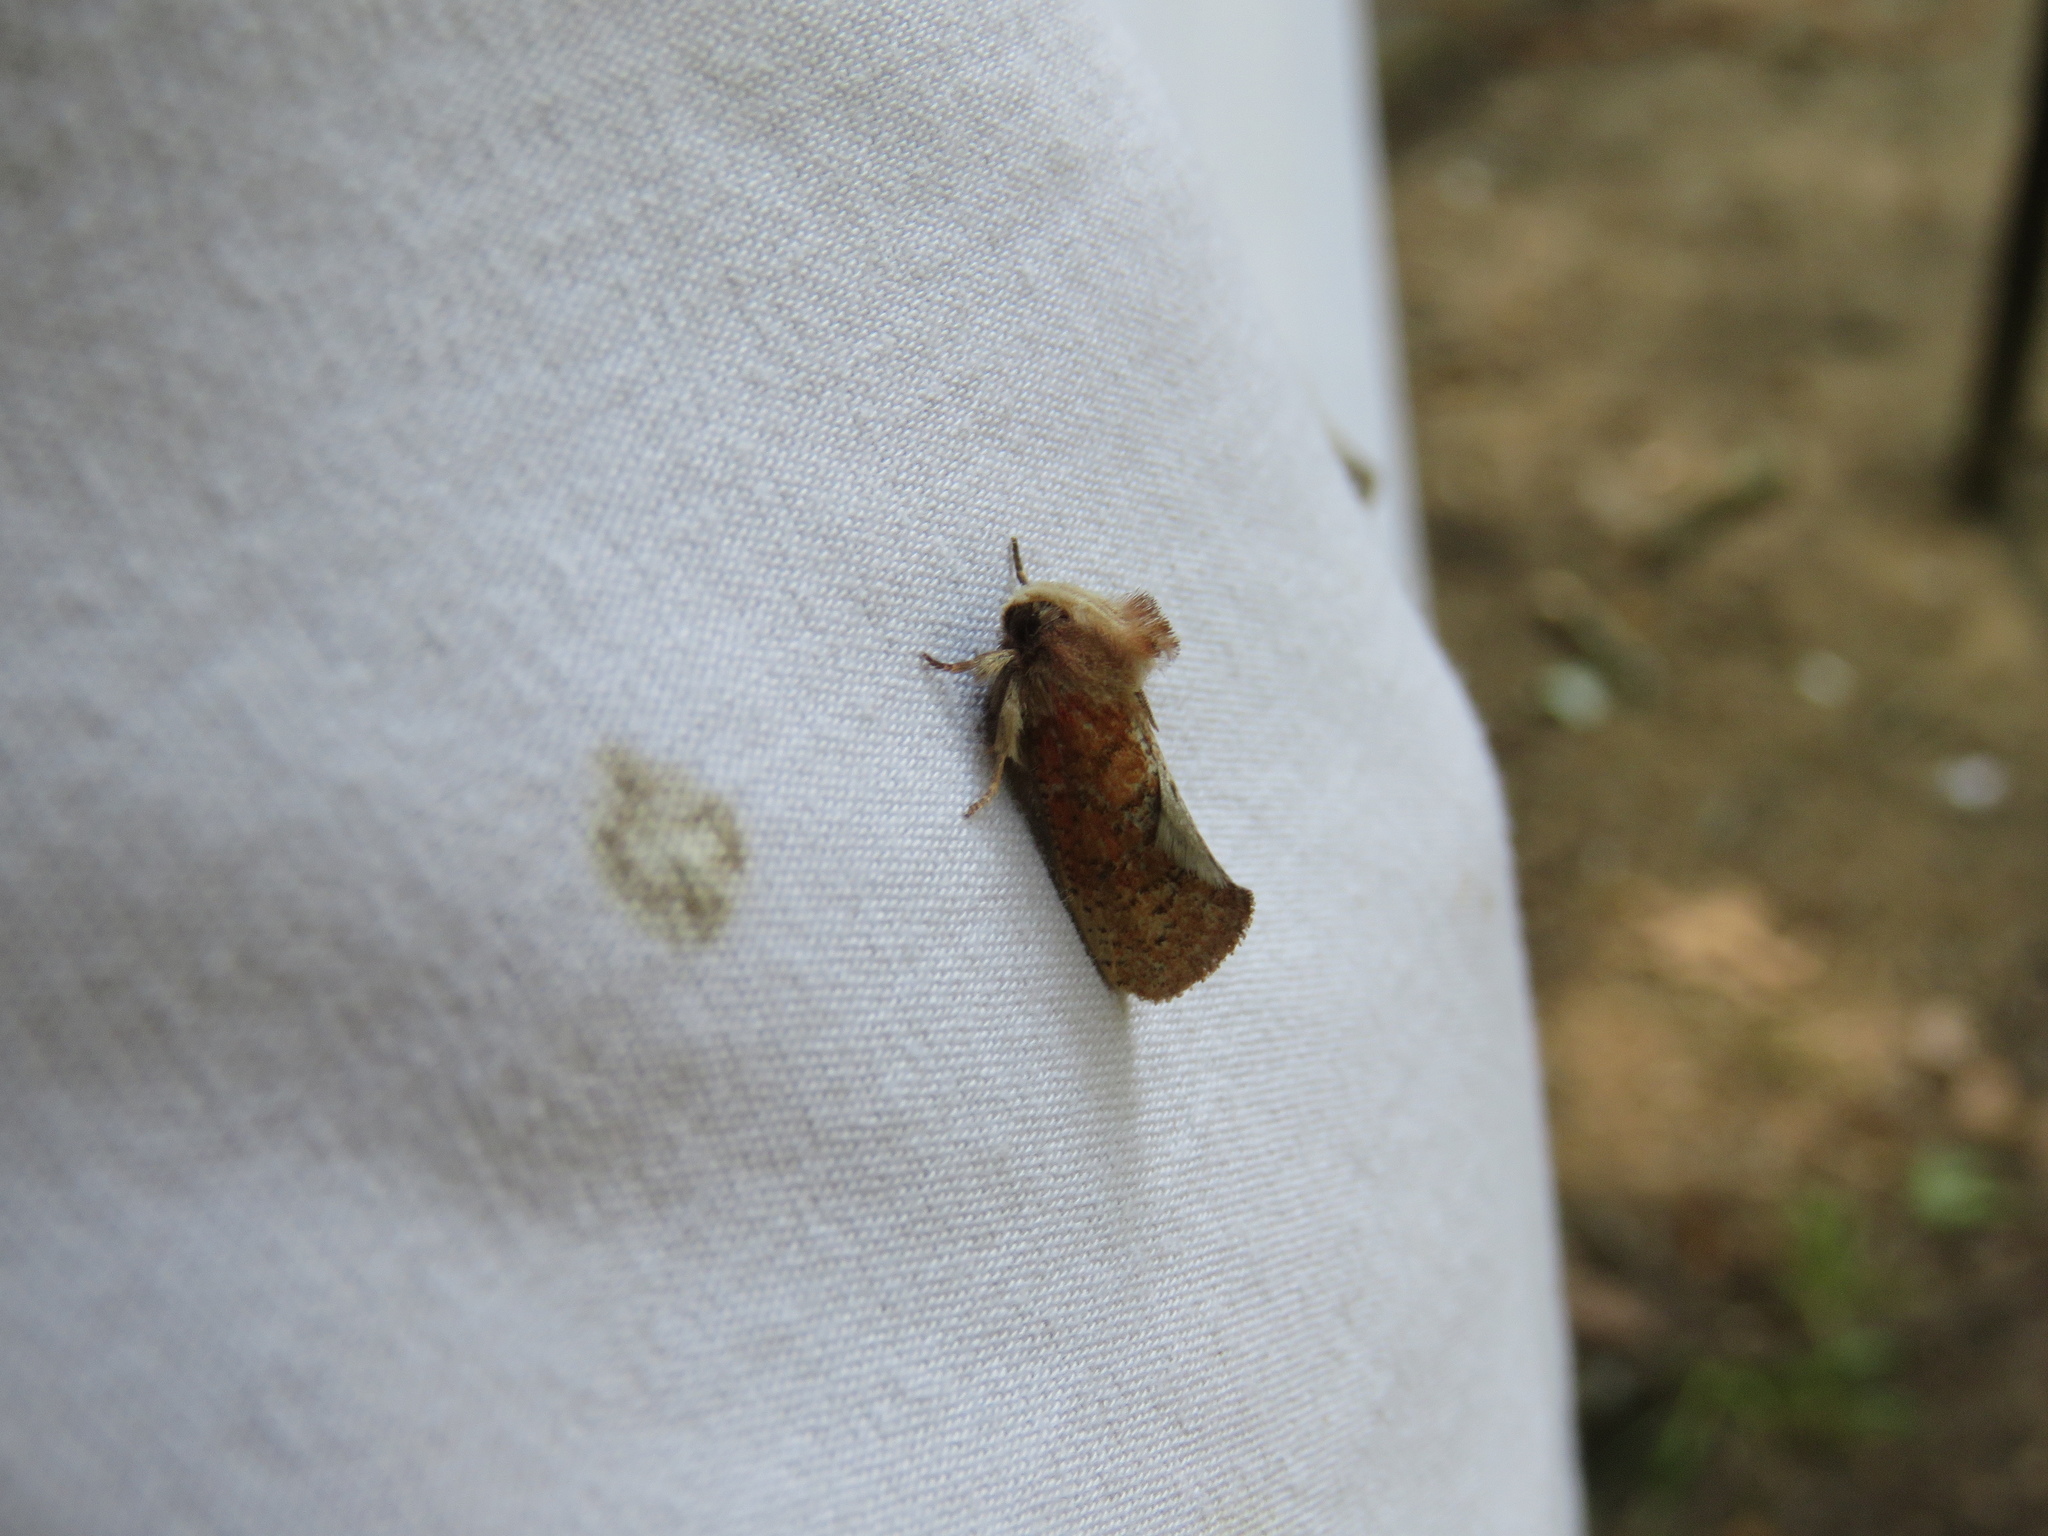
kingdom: Animalia
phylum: Arthropoda
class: Insecta
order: Lepidoptera
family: Tineidae
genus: Acrolophus
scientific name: Acrolophus plumifrontella
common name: Eastern grass tubeworm moth
